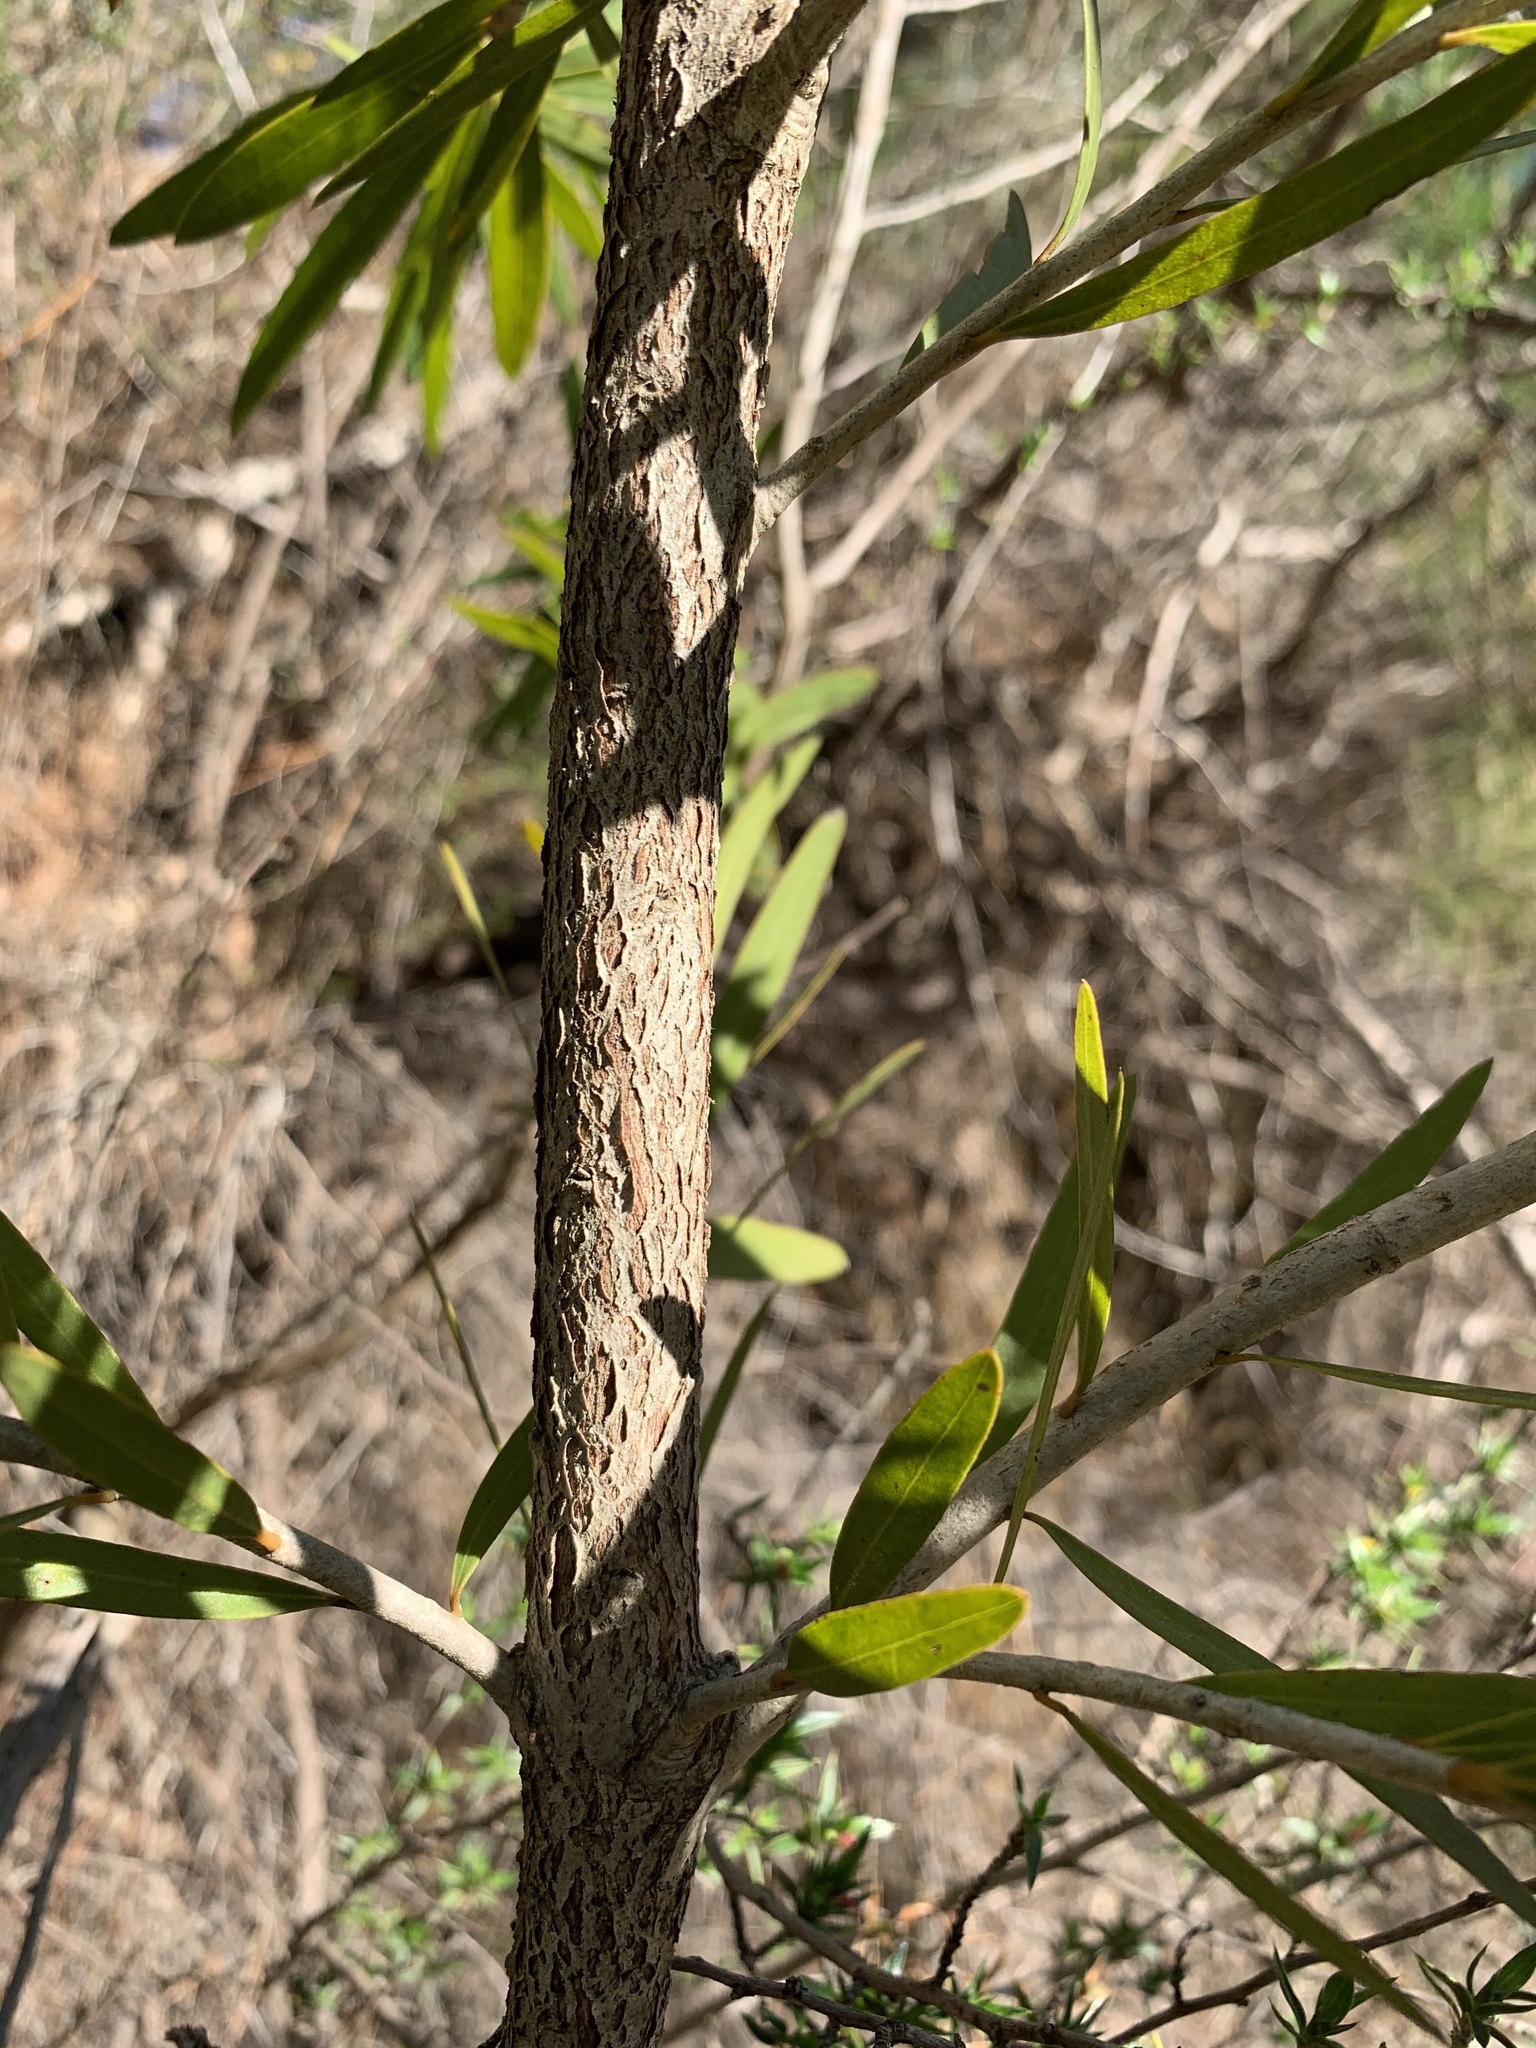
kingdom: Plantae
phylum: Tracheophyta
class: Magnoliopsida
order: Myrtales
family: Myrtaceae
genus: Callistemon
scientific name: Callistemon viminalis
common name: Drooping bottlebrush
